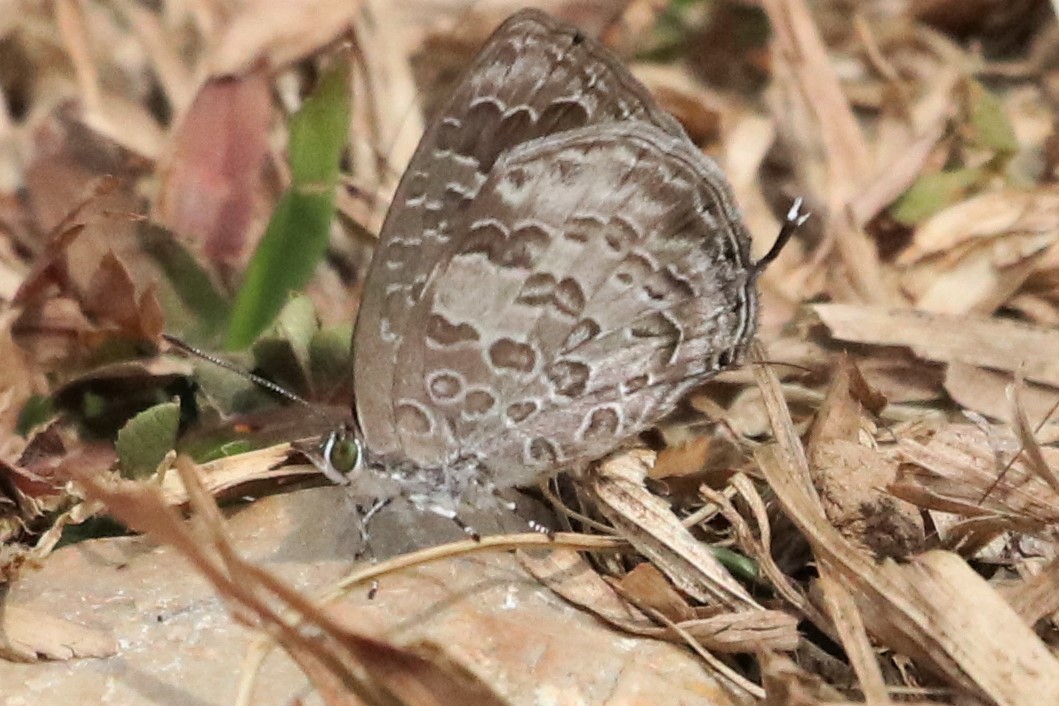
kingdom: Animalia
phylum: Arthropoda
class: Insecta
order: Lepidoptera
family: Lycaenidae
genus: Arhopala
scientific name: Arhopala birmana
